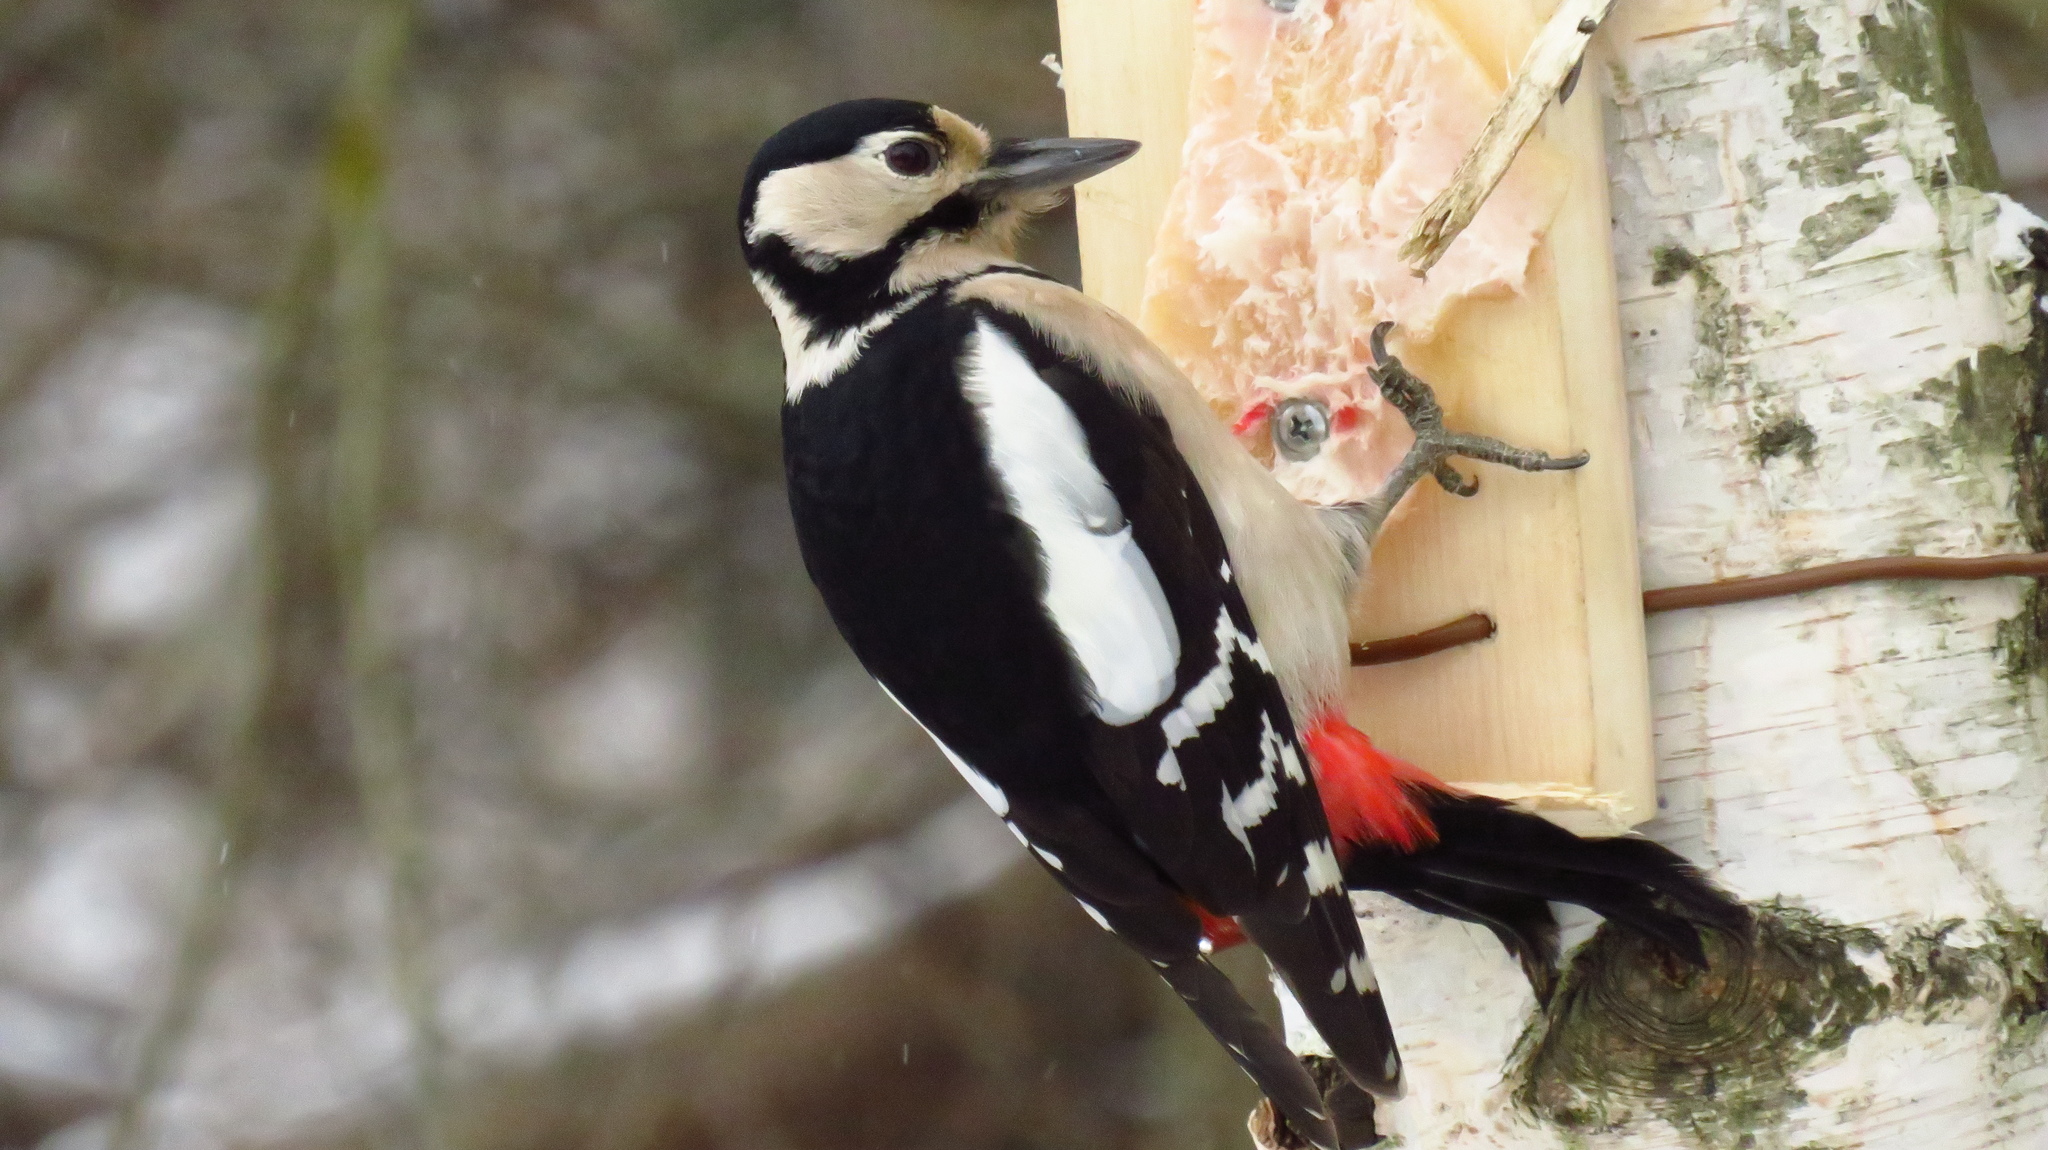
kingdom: Animalia
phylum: Chordata
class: Aves
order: Piciformes
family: Picidae
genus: Dendrocopos
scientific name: Dendrocopos major
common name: Great spotted woodpecker
